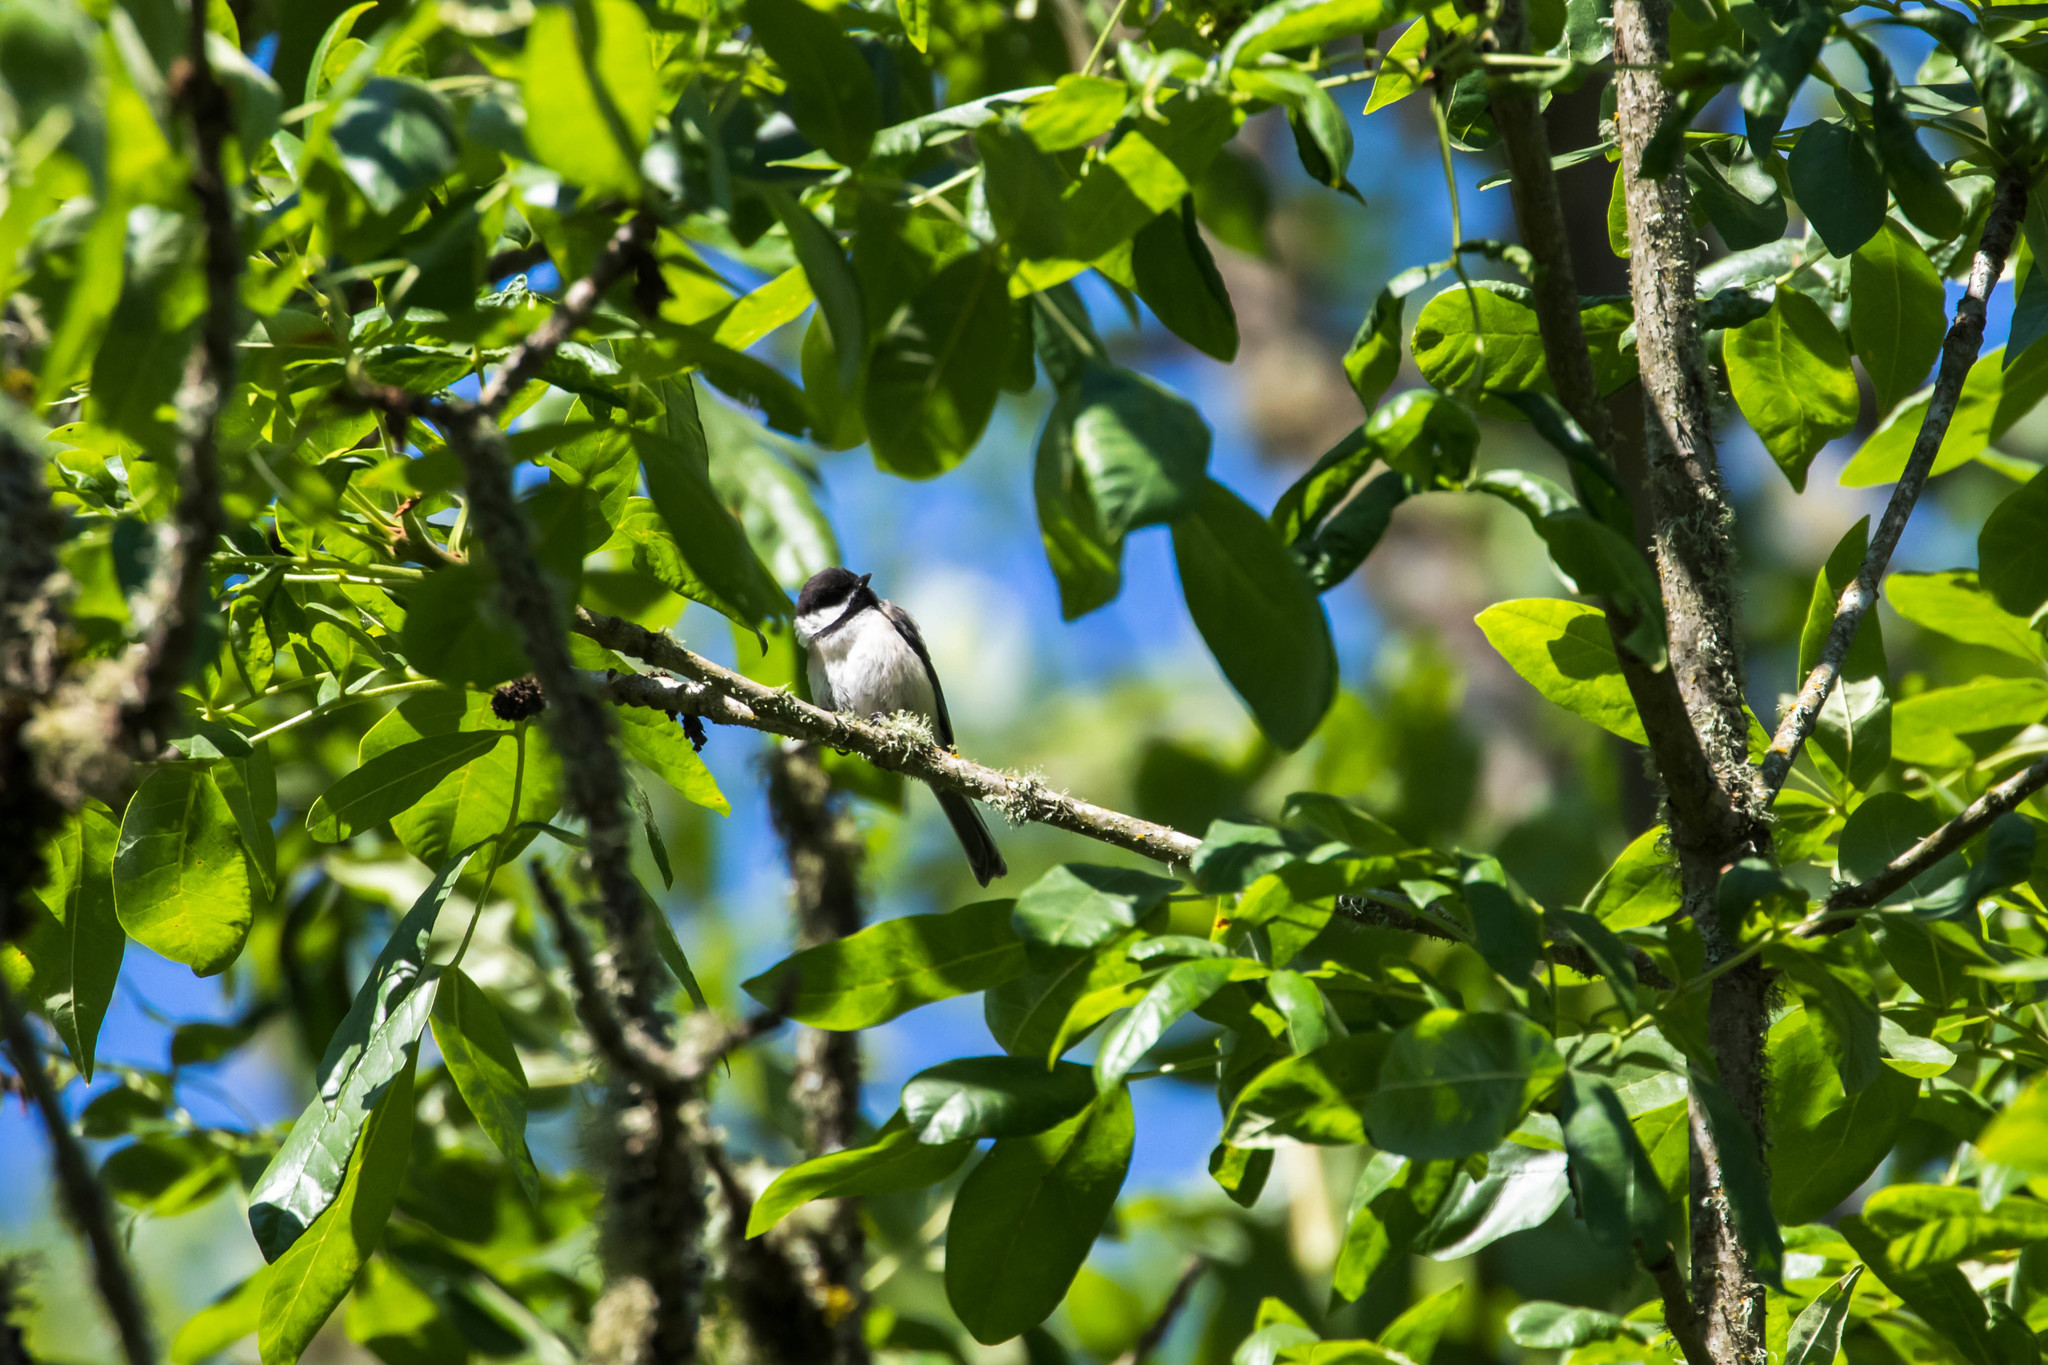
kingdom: Animalia
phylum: Chordata
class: Aves
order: Passeriformes
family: Paridae
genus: Poecile
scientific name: Poecile atricapillus
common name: Black-capped chickadee
